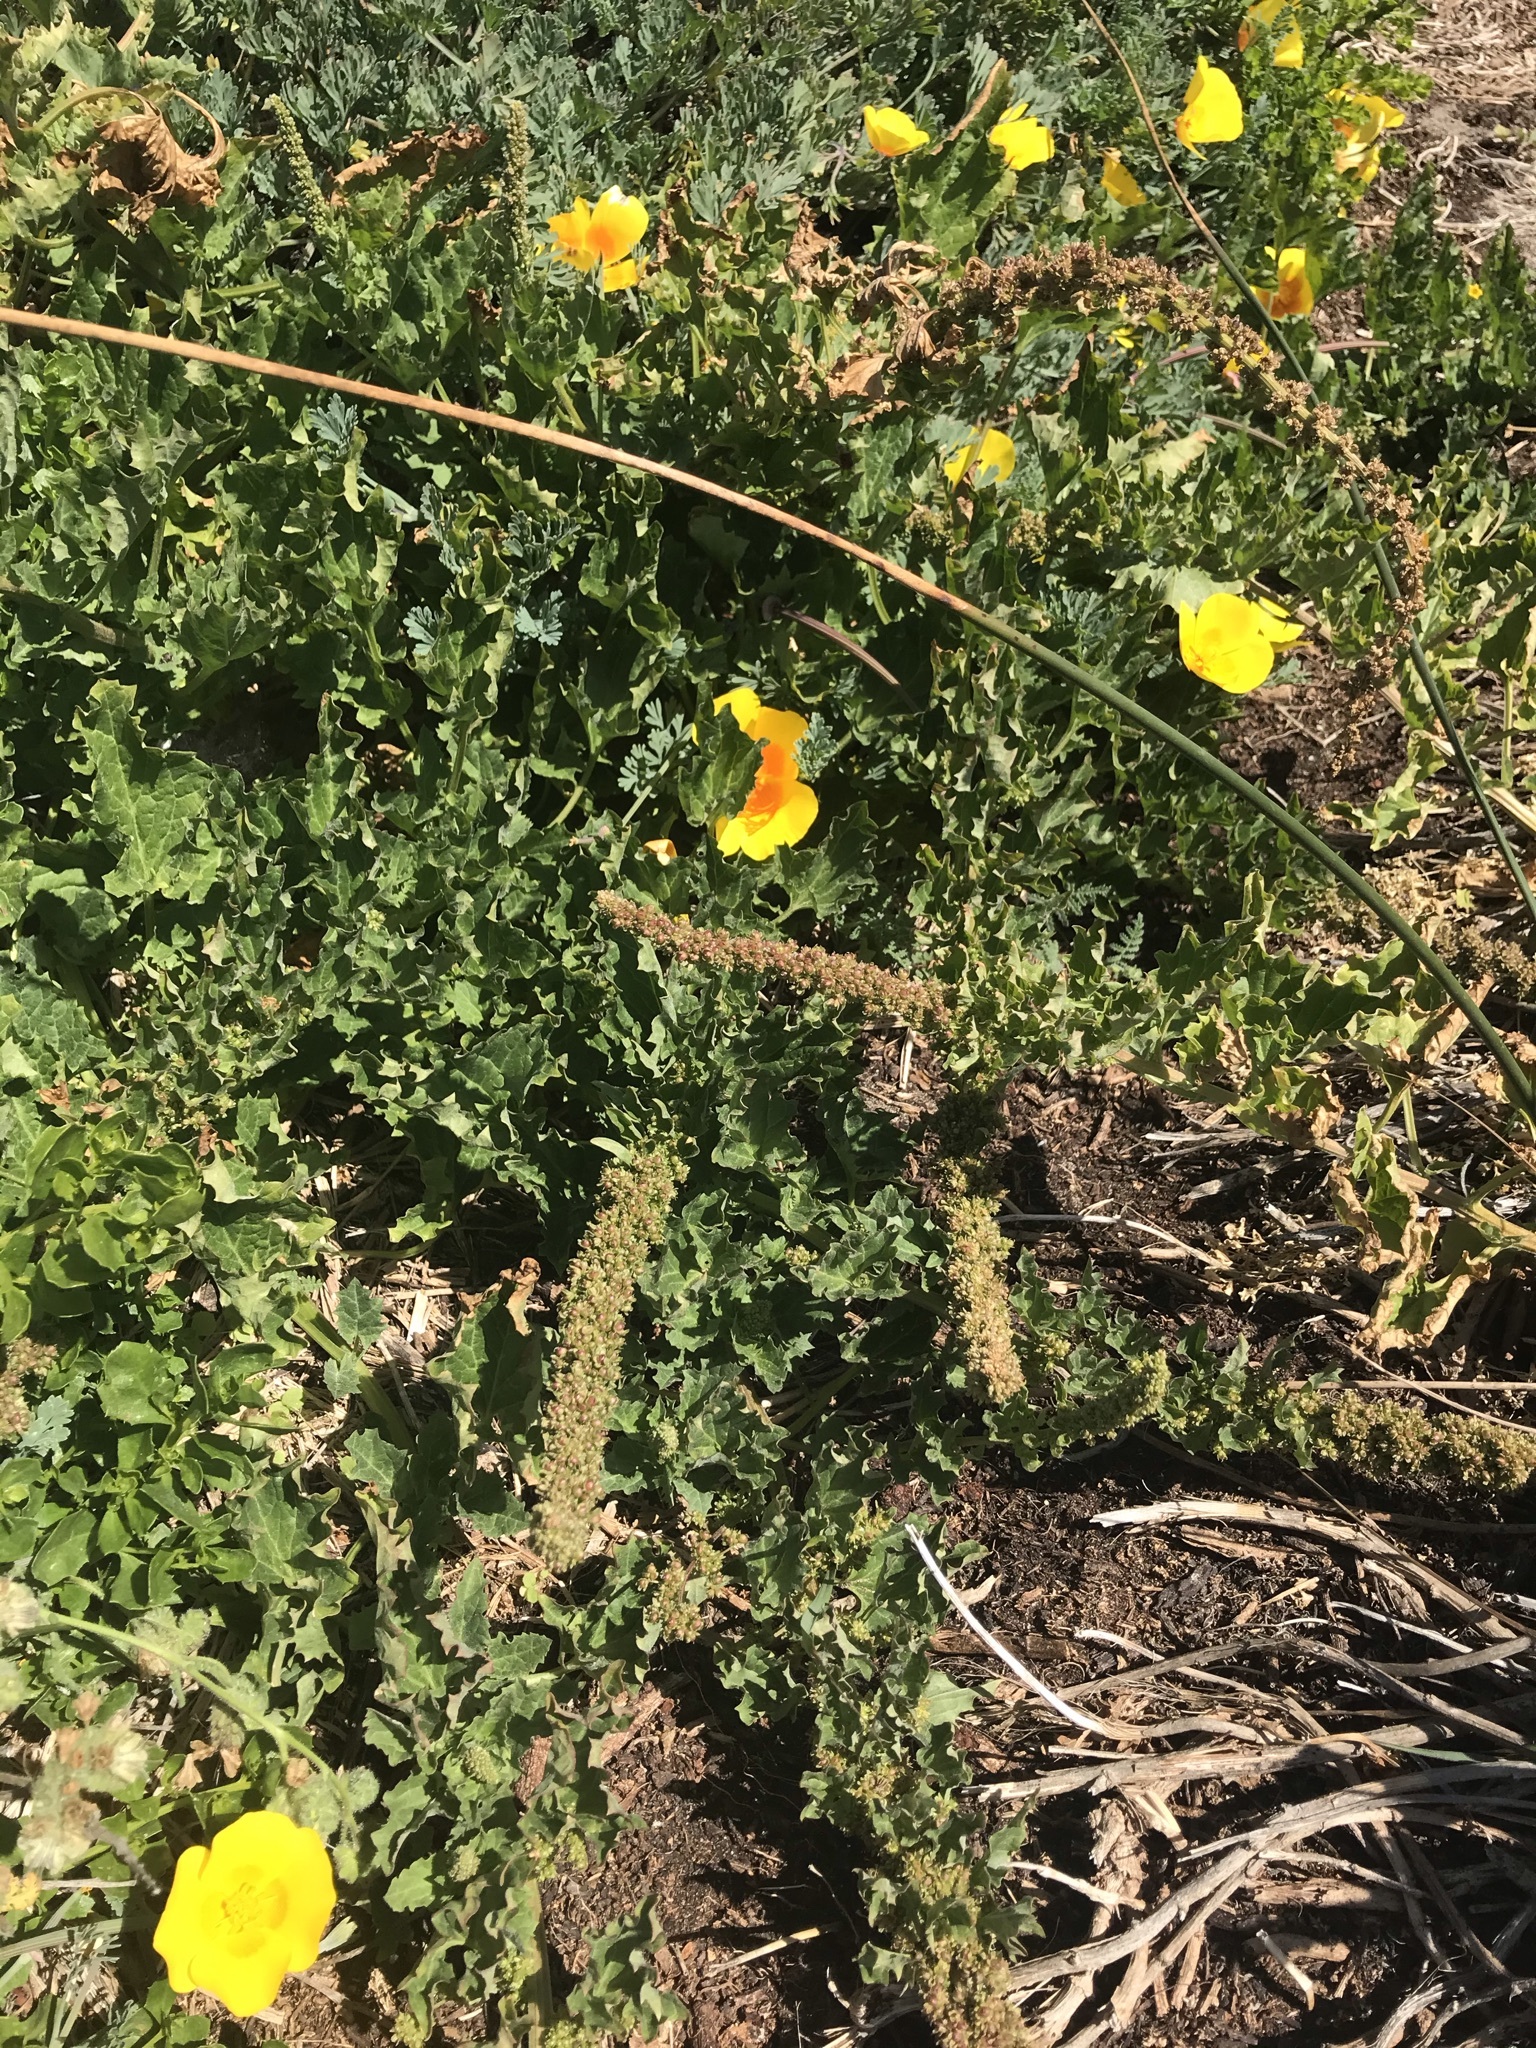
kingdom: Plantae
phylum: Tracheophyta
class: Magnoliopsida
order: Caryophyllales
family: Amaranthaceae
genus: Blitum
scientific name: Blitum californicum
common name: California goosefoot
